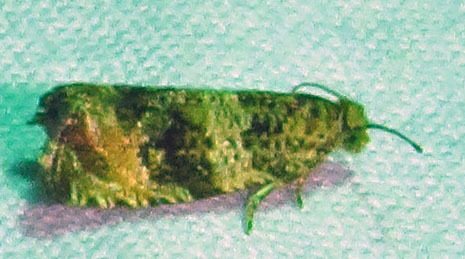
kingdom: Animalia
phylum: Arthropoda
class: Insecta
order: Lepidoptera
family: Tortricidae
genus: Celypha
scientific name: Celypha cespitana
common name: Thyme marble
